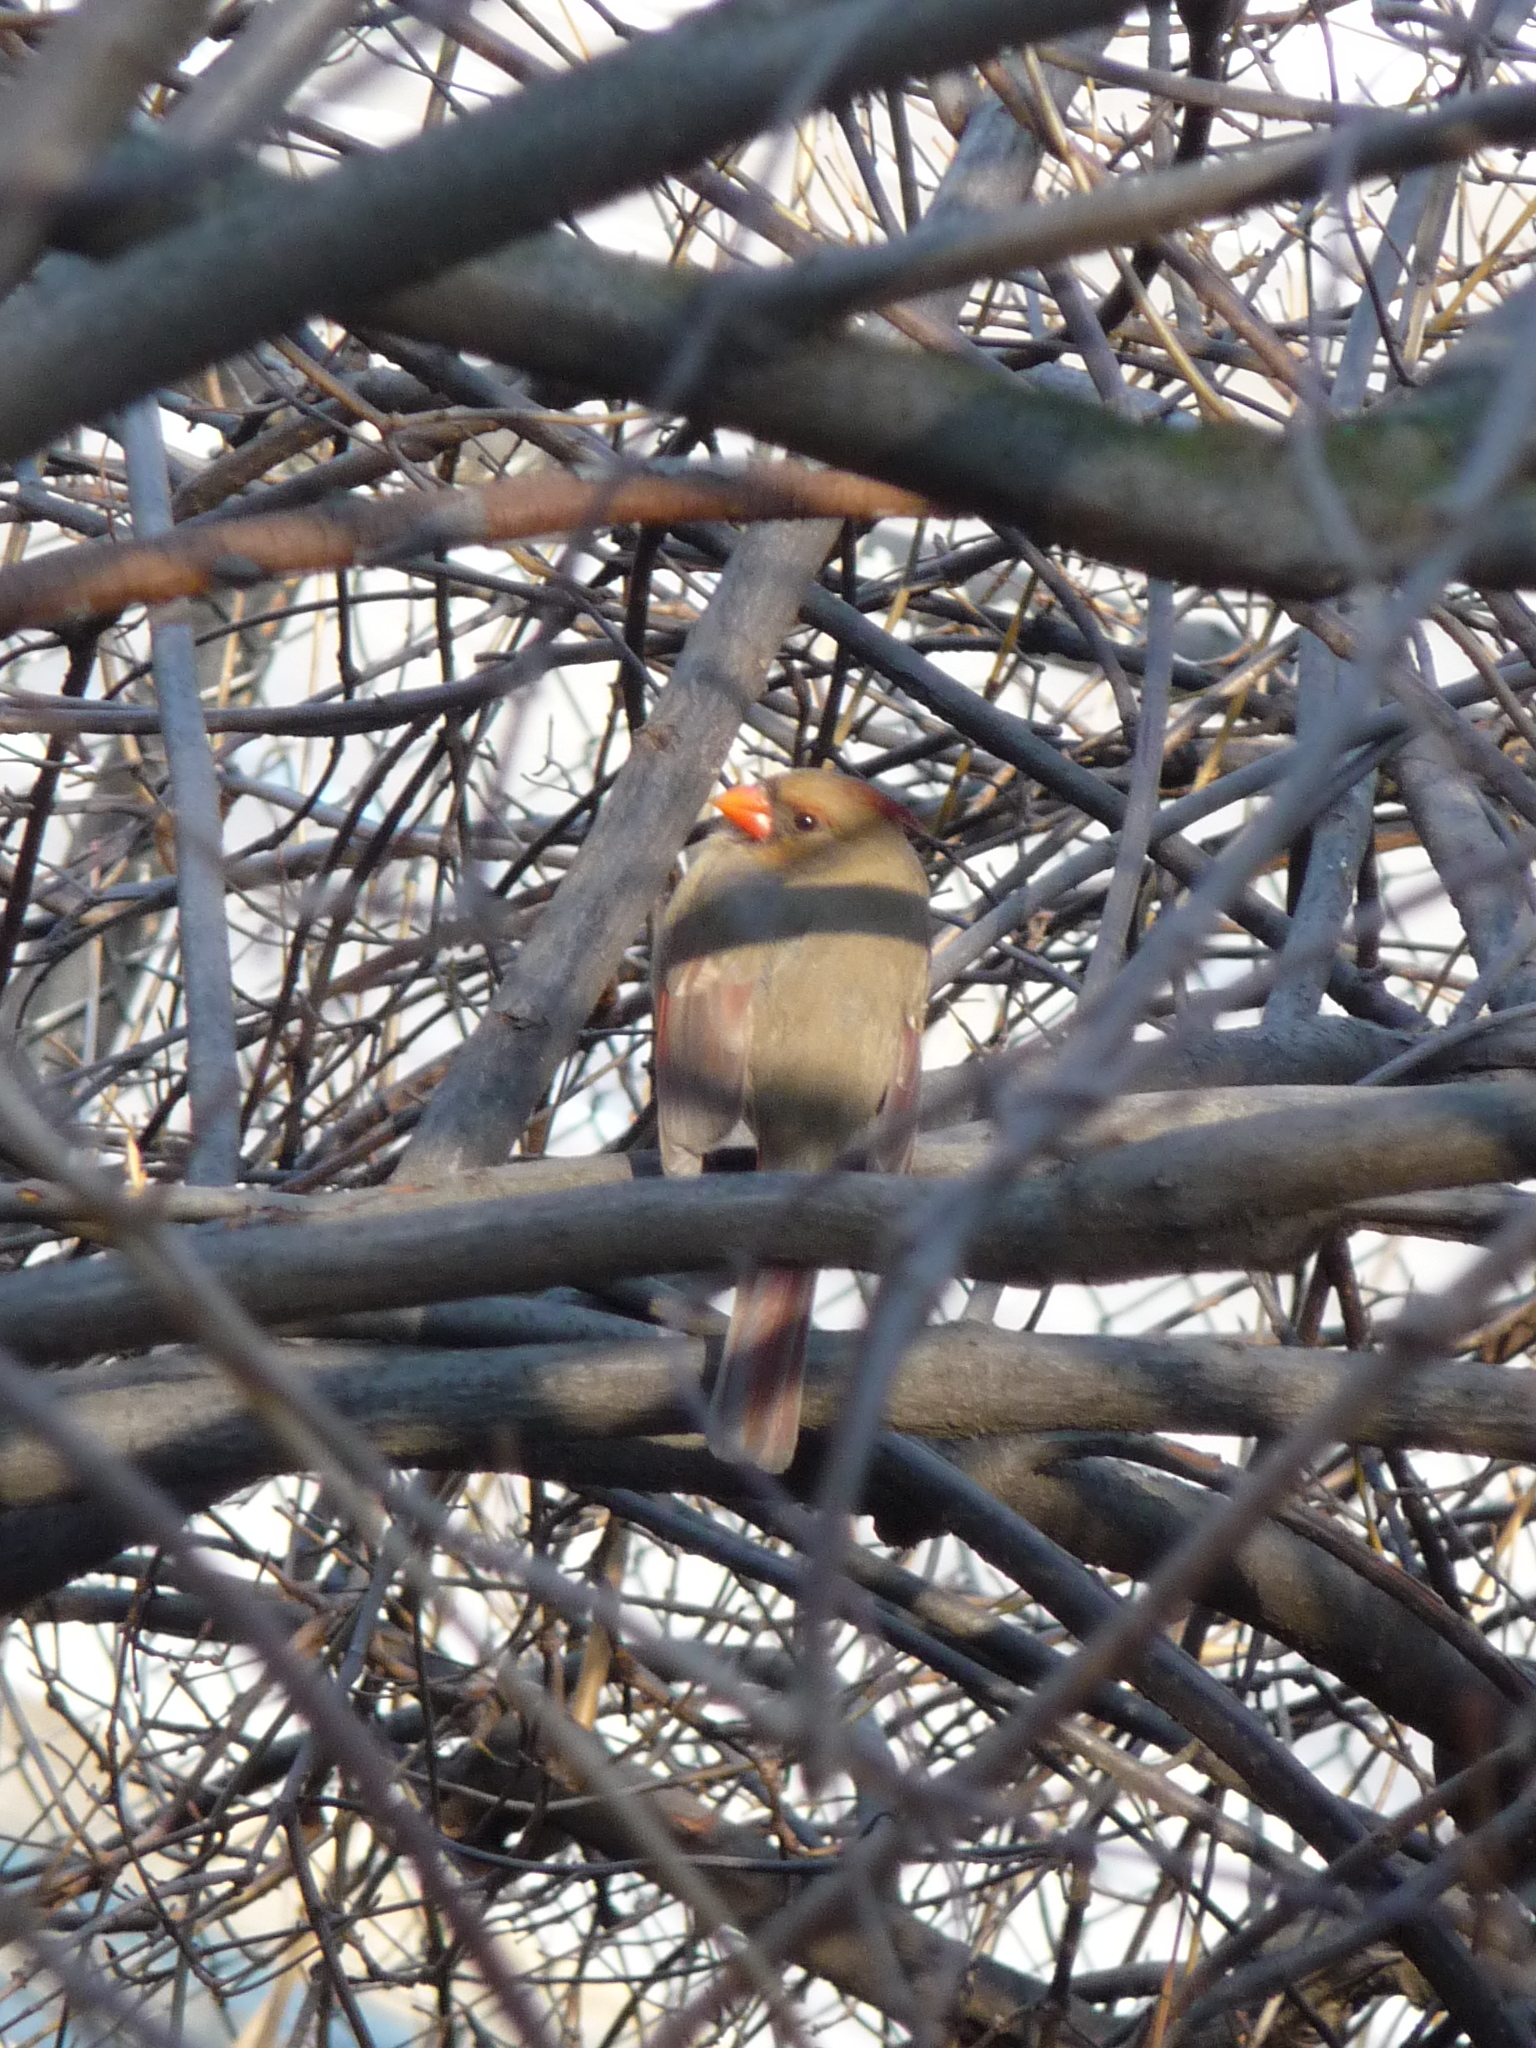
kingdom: Animalia
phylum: Chordata
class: Aves
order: Passeriformes
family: Cardinalidae
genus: Cardinalis
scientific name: Cardinalis cardinalis
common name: Northern cardinal
